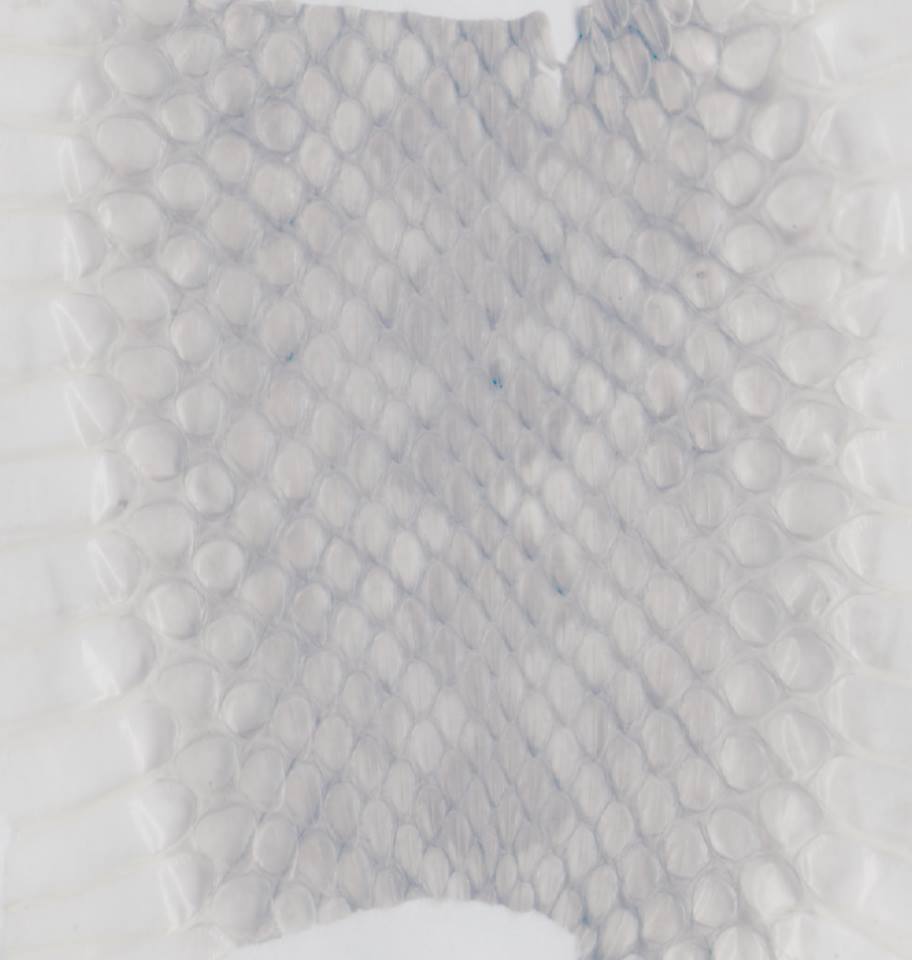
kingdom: Animalia
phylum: Chordata
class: Squamata
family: Viperidae
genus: Vipera
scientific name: Vipera eriwanensis
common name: Alburzi viper
